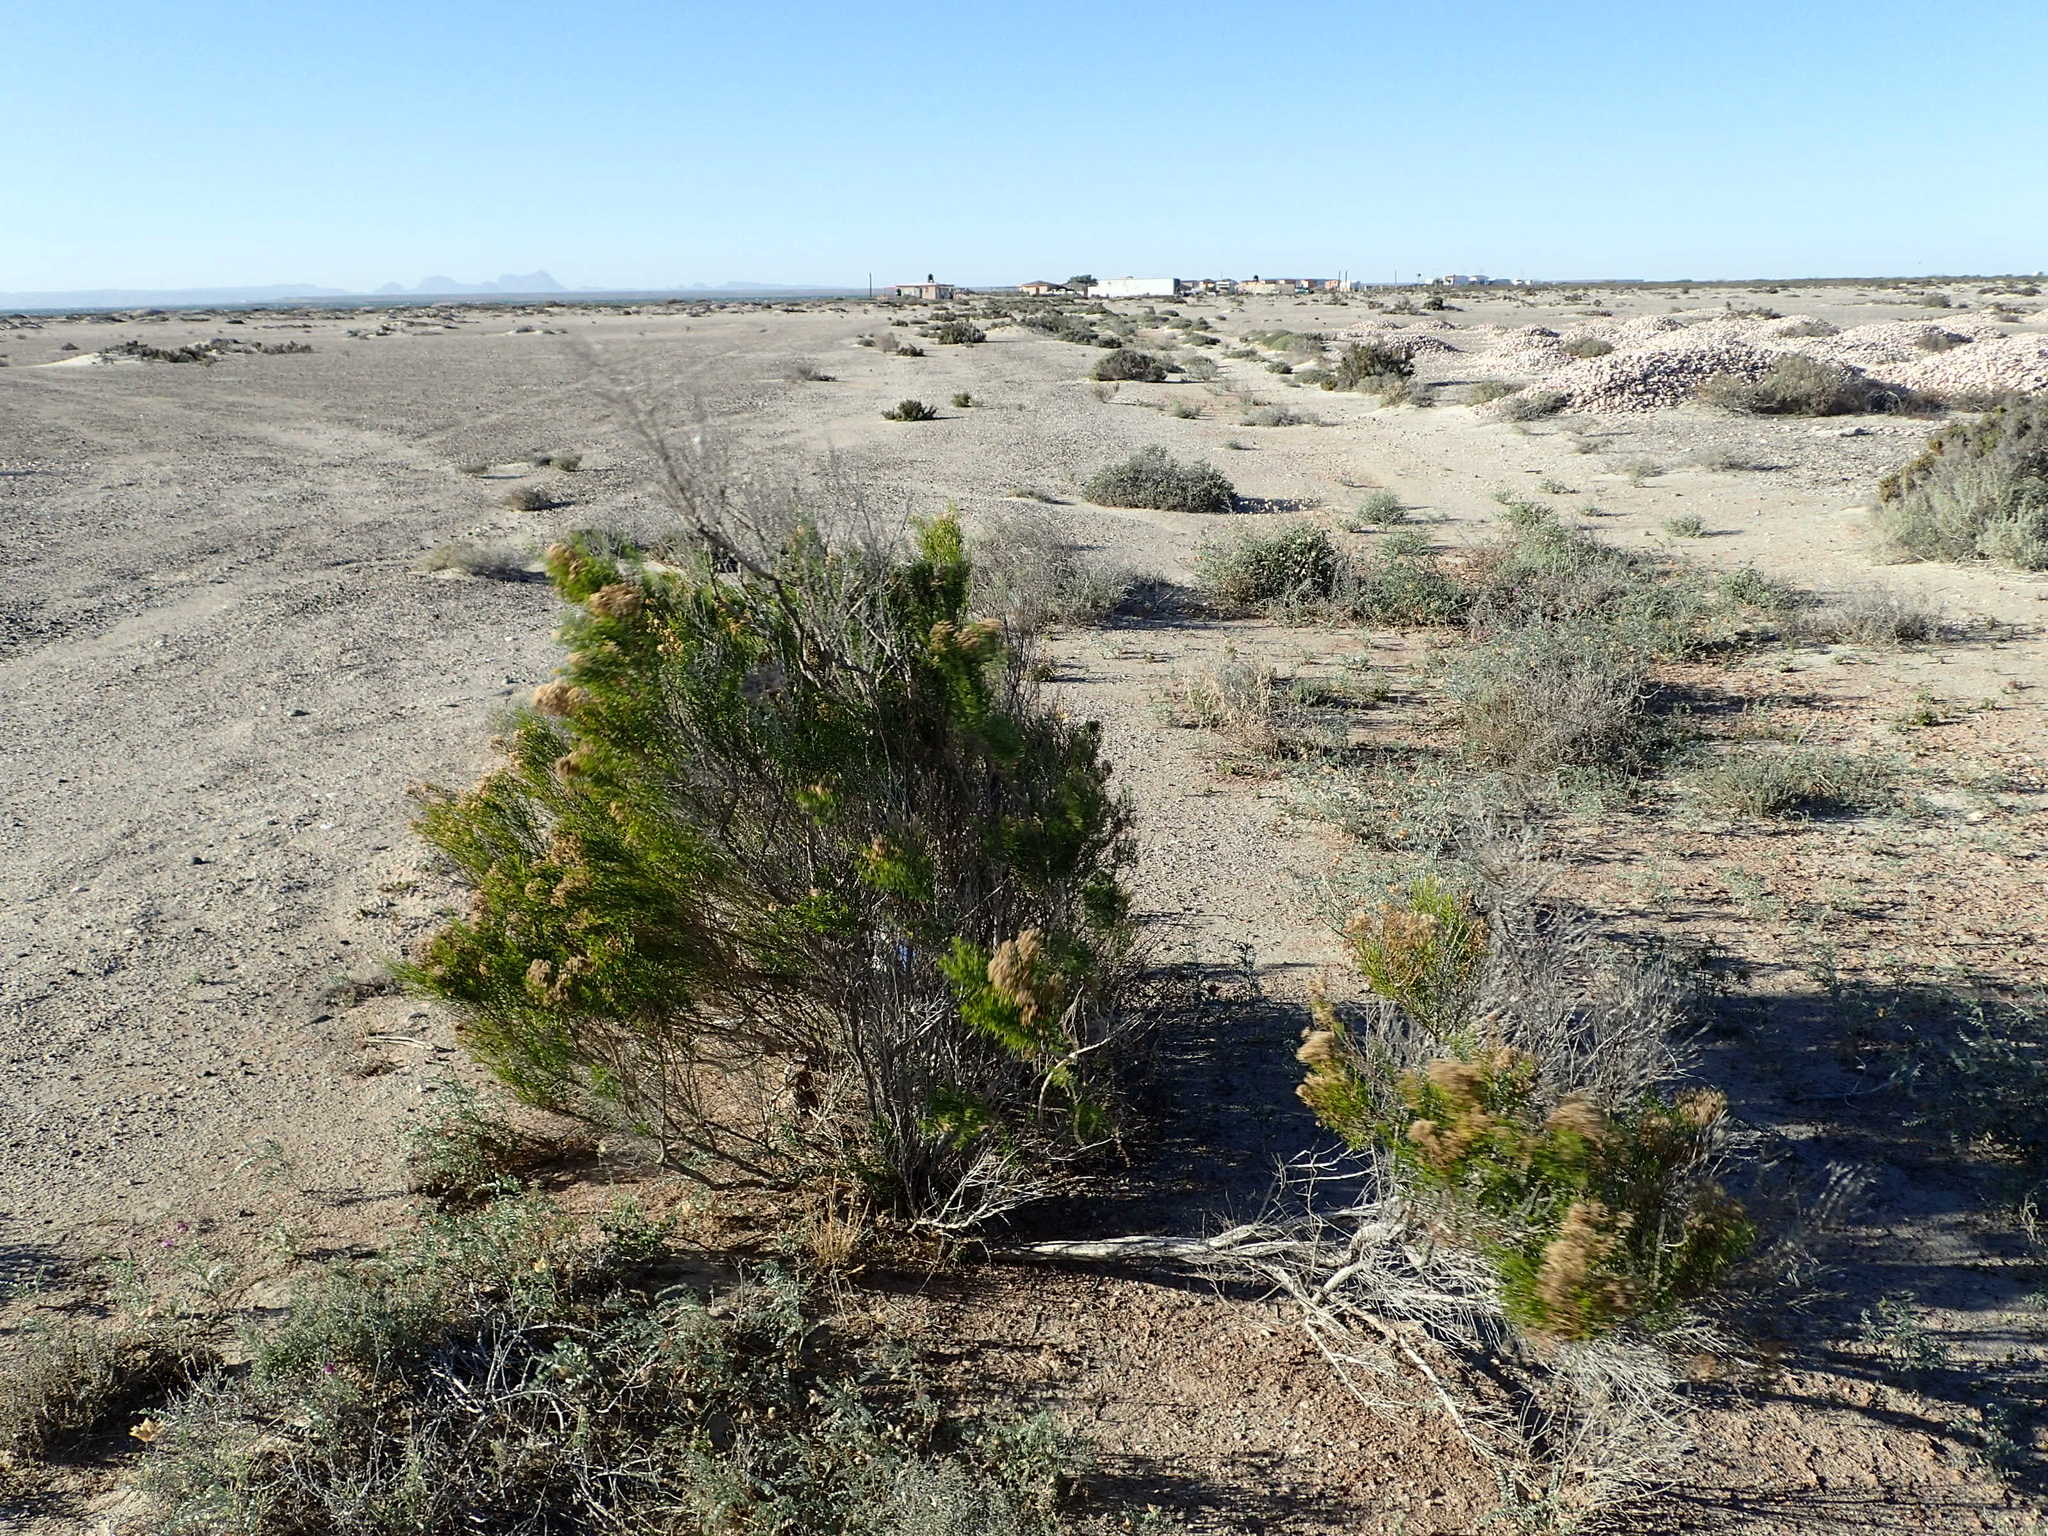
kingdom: Plantae
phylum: Tracheophyta
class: Magnoliopsida
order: Asterales
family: Asteraceae
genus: Gundlachia
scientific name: Gundlachia diffusa
